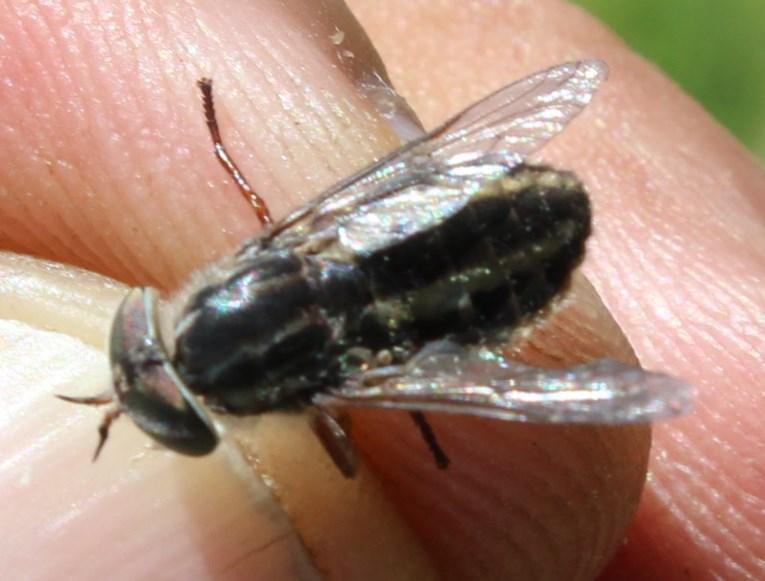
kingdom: Animalia
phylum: Arthropoda
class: Insecta
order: Diptera
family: Tabanidae
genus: Tabanus
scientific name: Tabanus taeniatus
